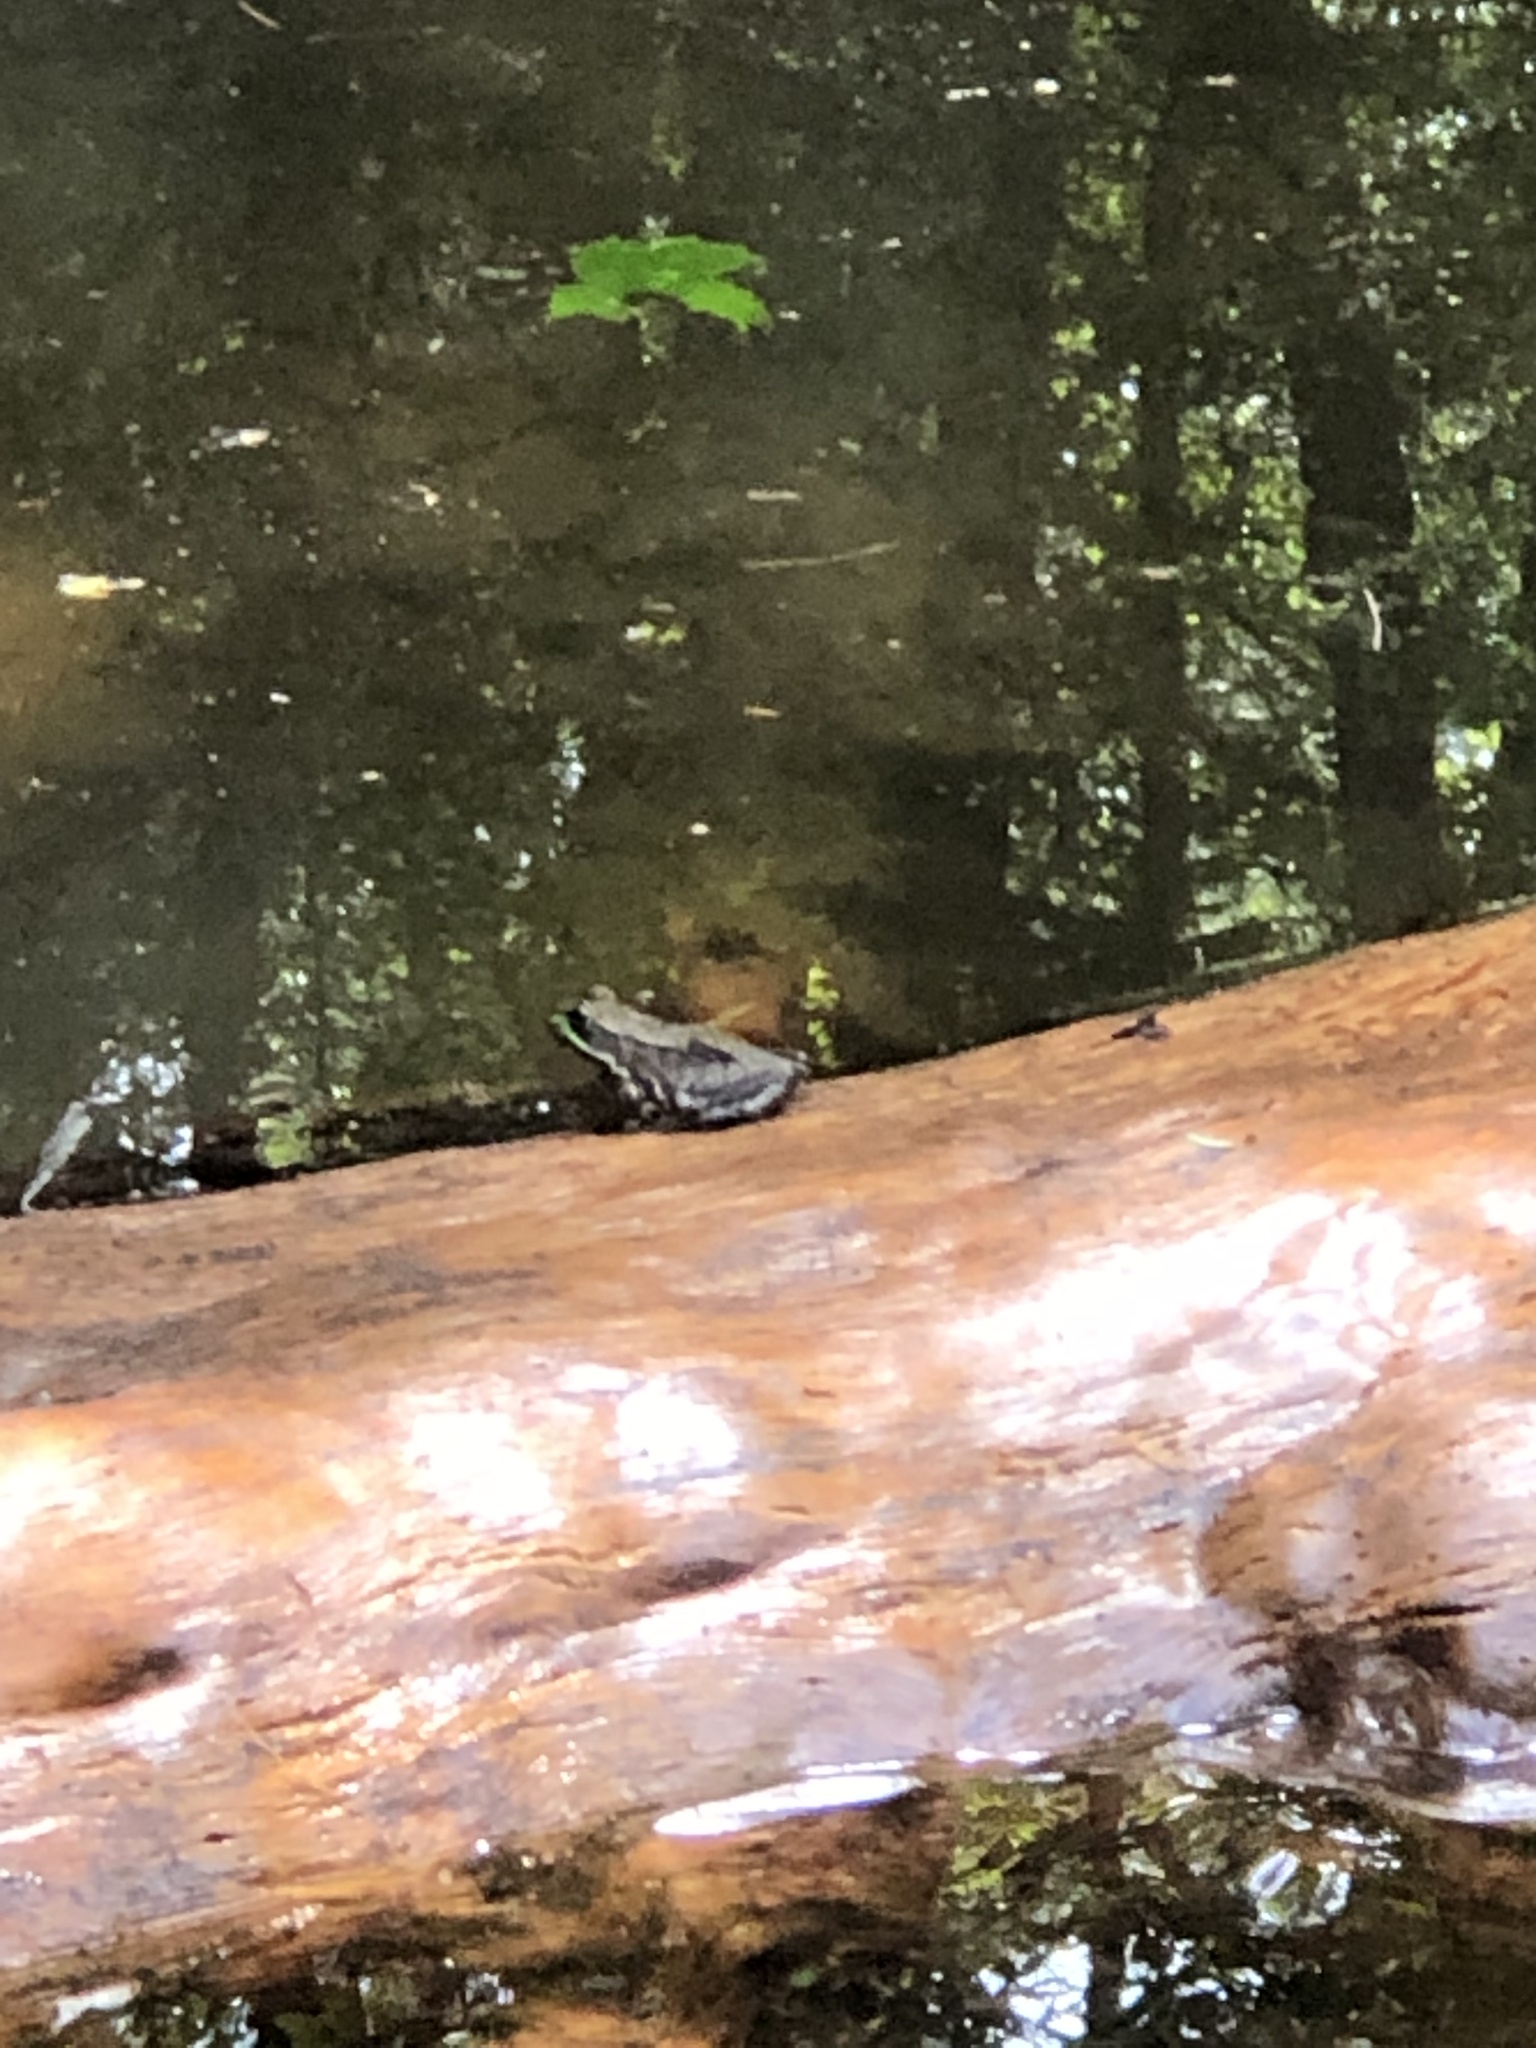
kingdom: Animalia
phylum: Chordata
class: Amphibia
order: Anura
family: Ranidae
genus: Lithobates
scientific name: Lithobates clamitans
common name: Green frog
